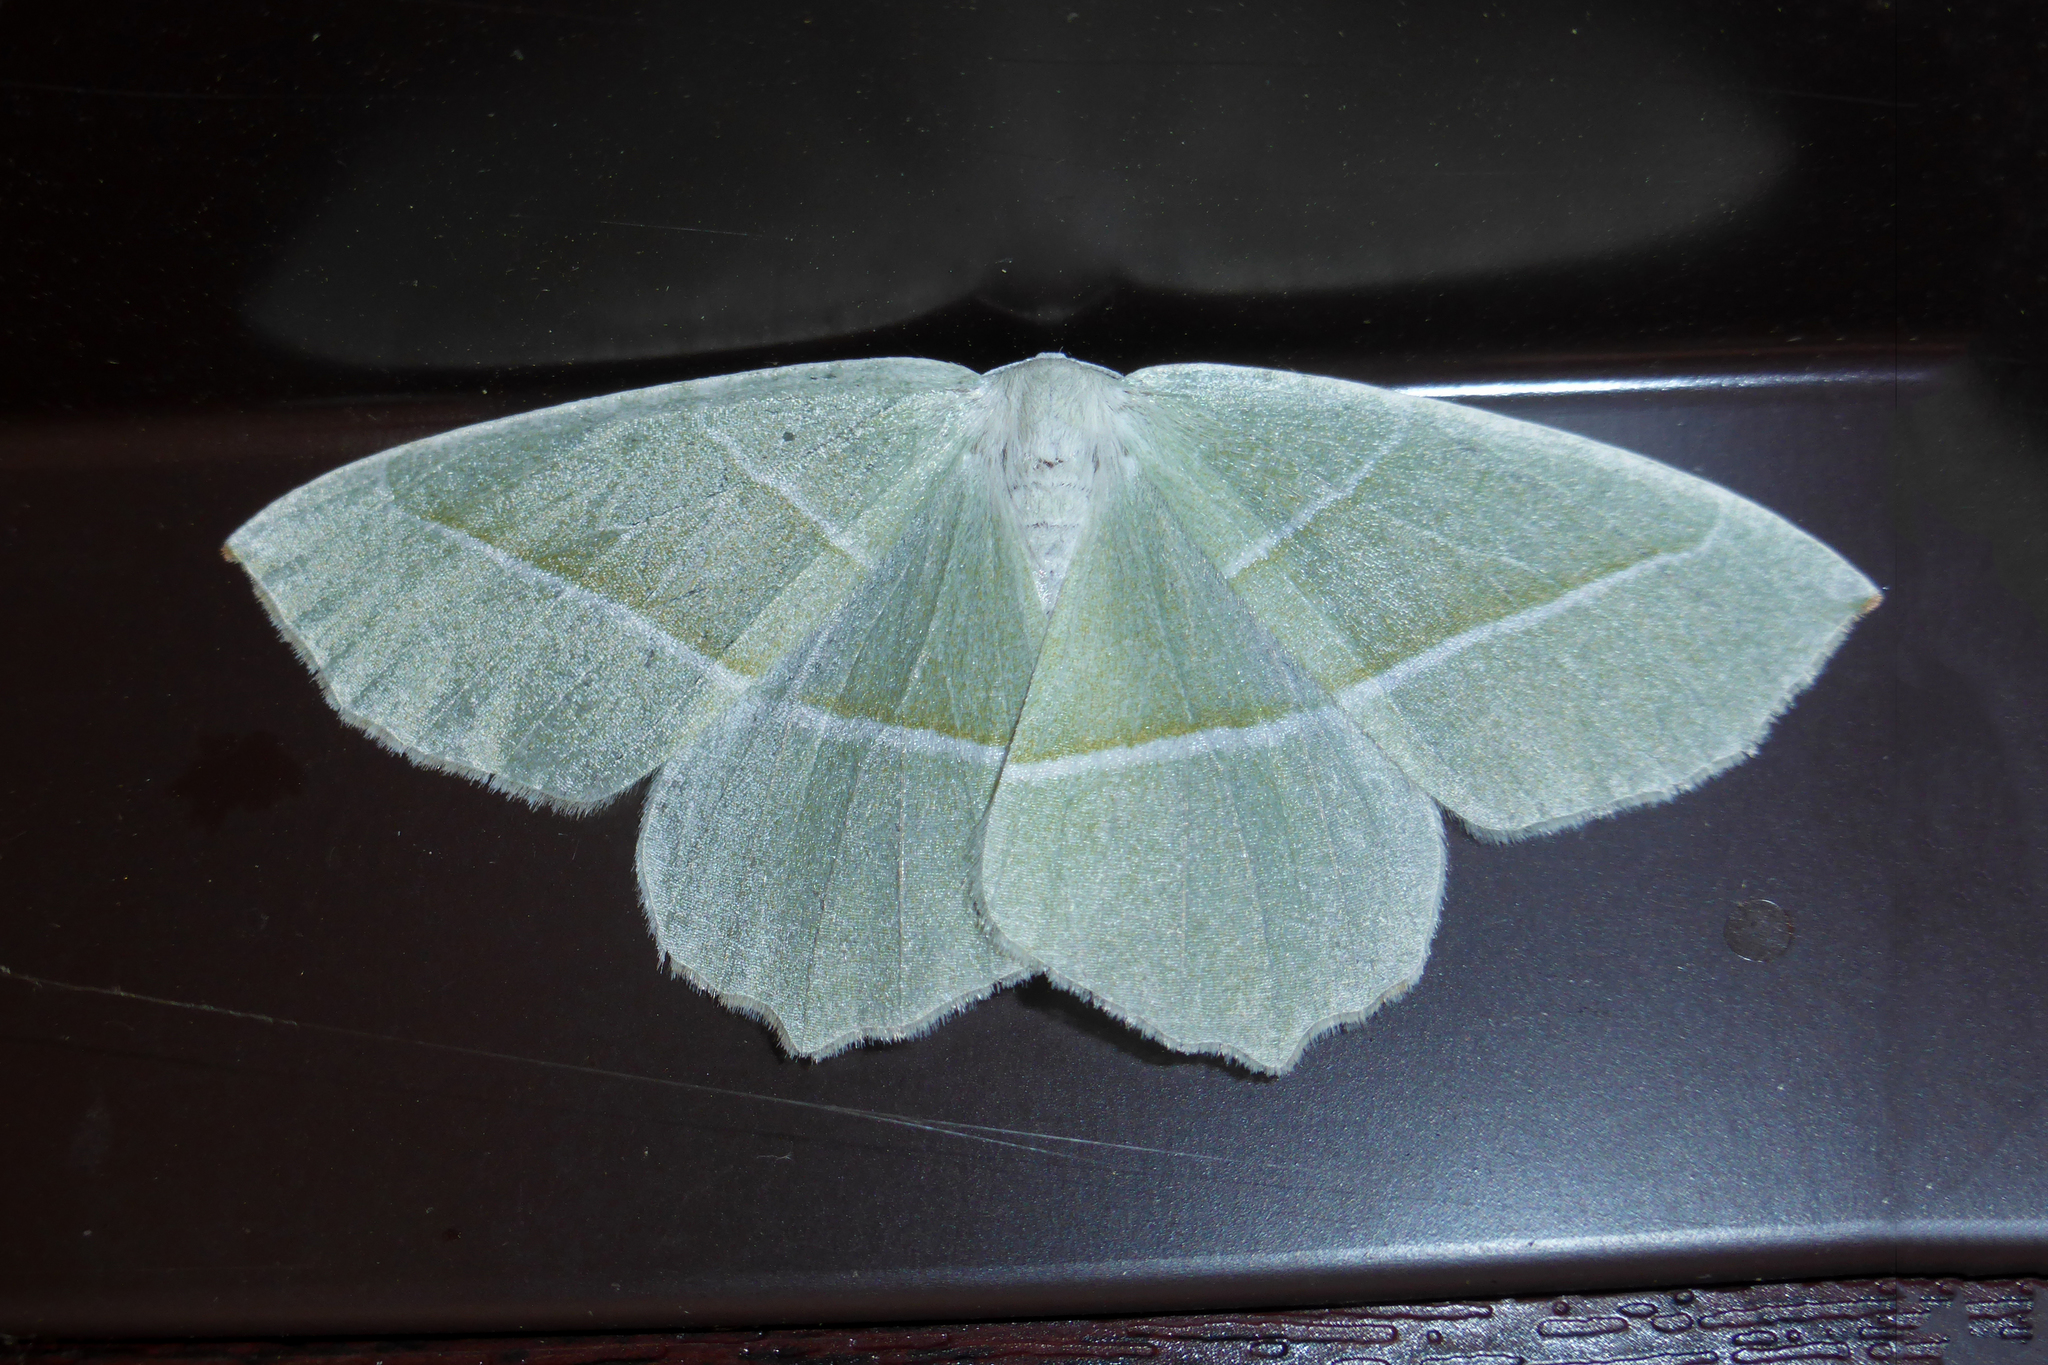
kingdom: Animalia
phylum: Arthropoda
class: Insecta
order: Lepidoptera
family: Geometridae
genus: Campaea
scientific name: Campaea margaritaria
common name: Light emerald
